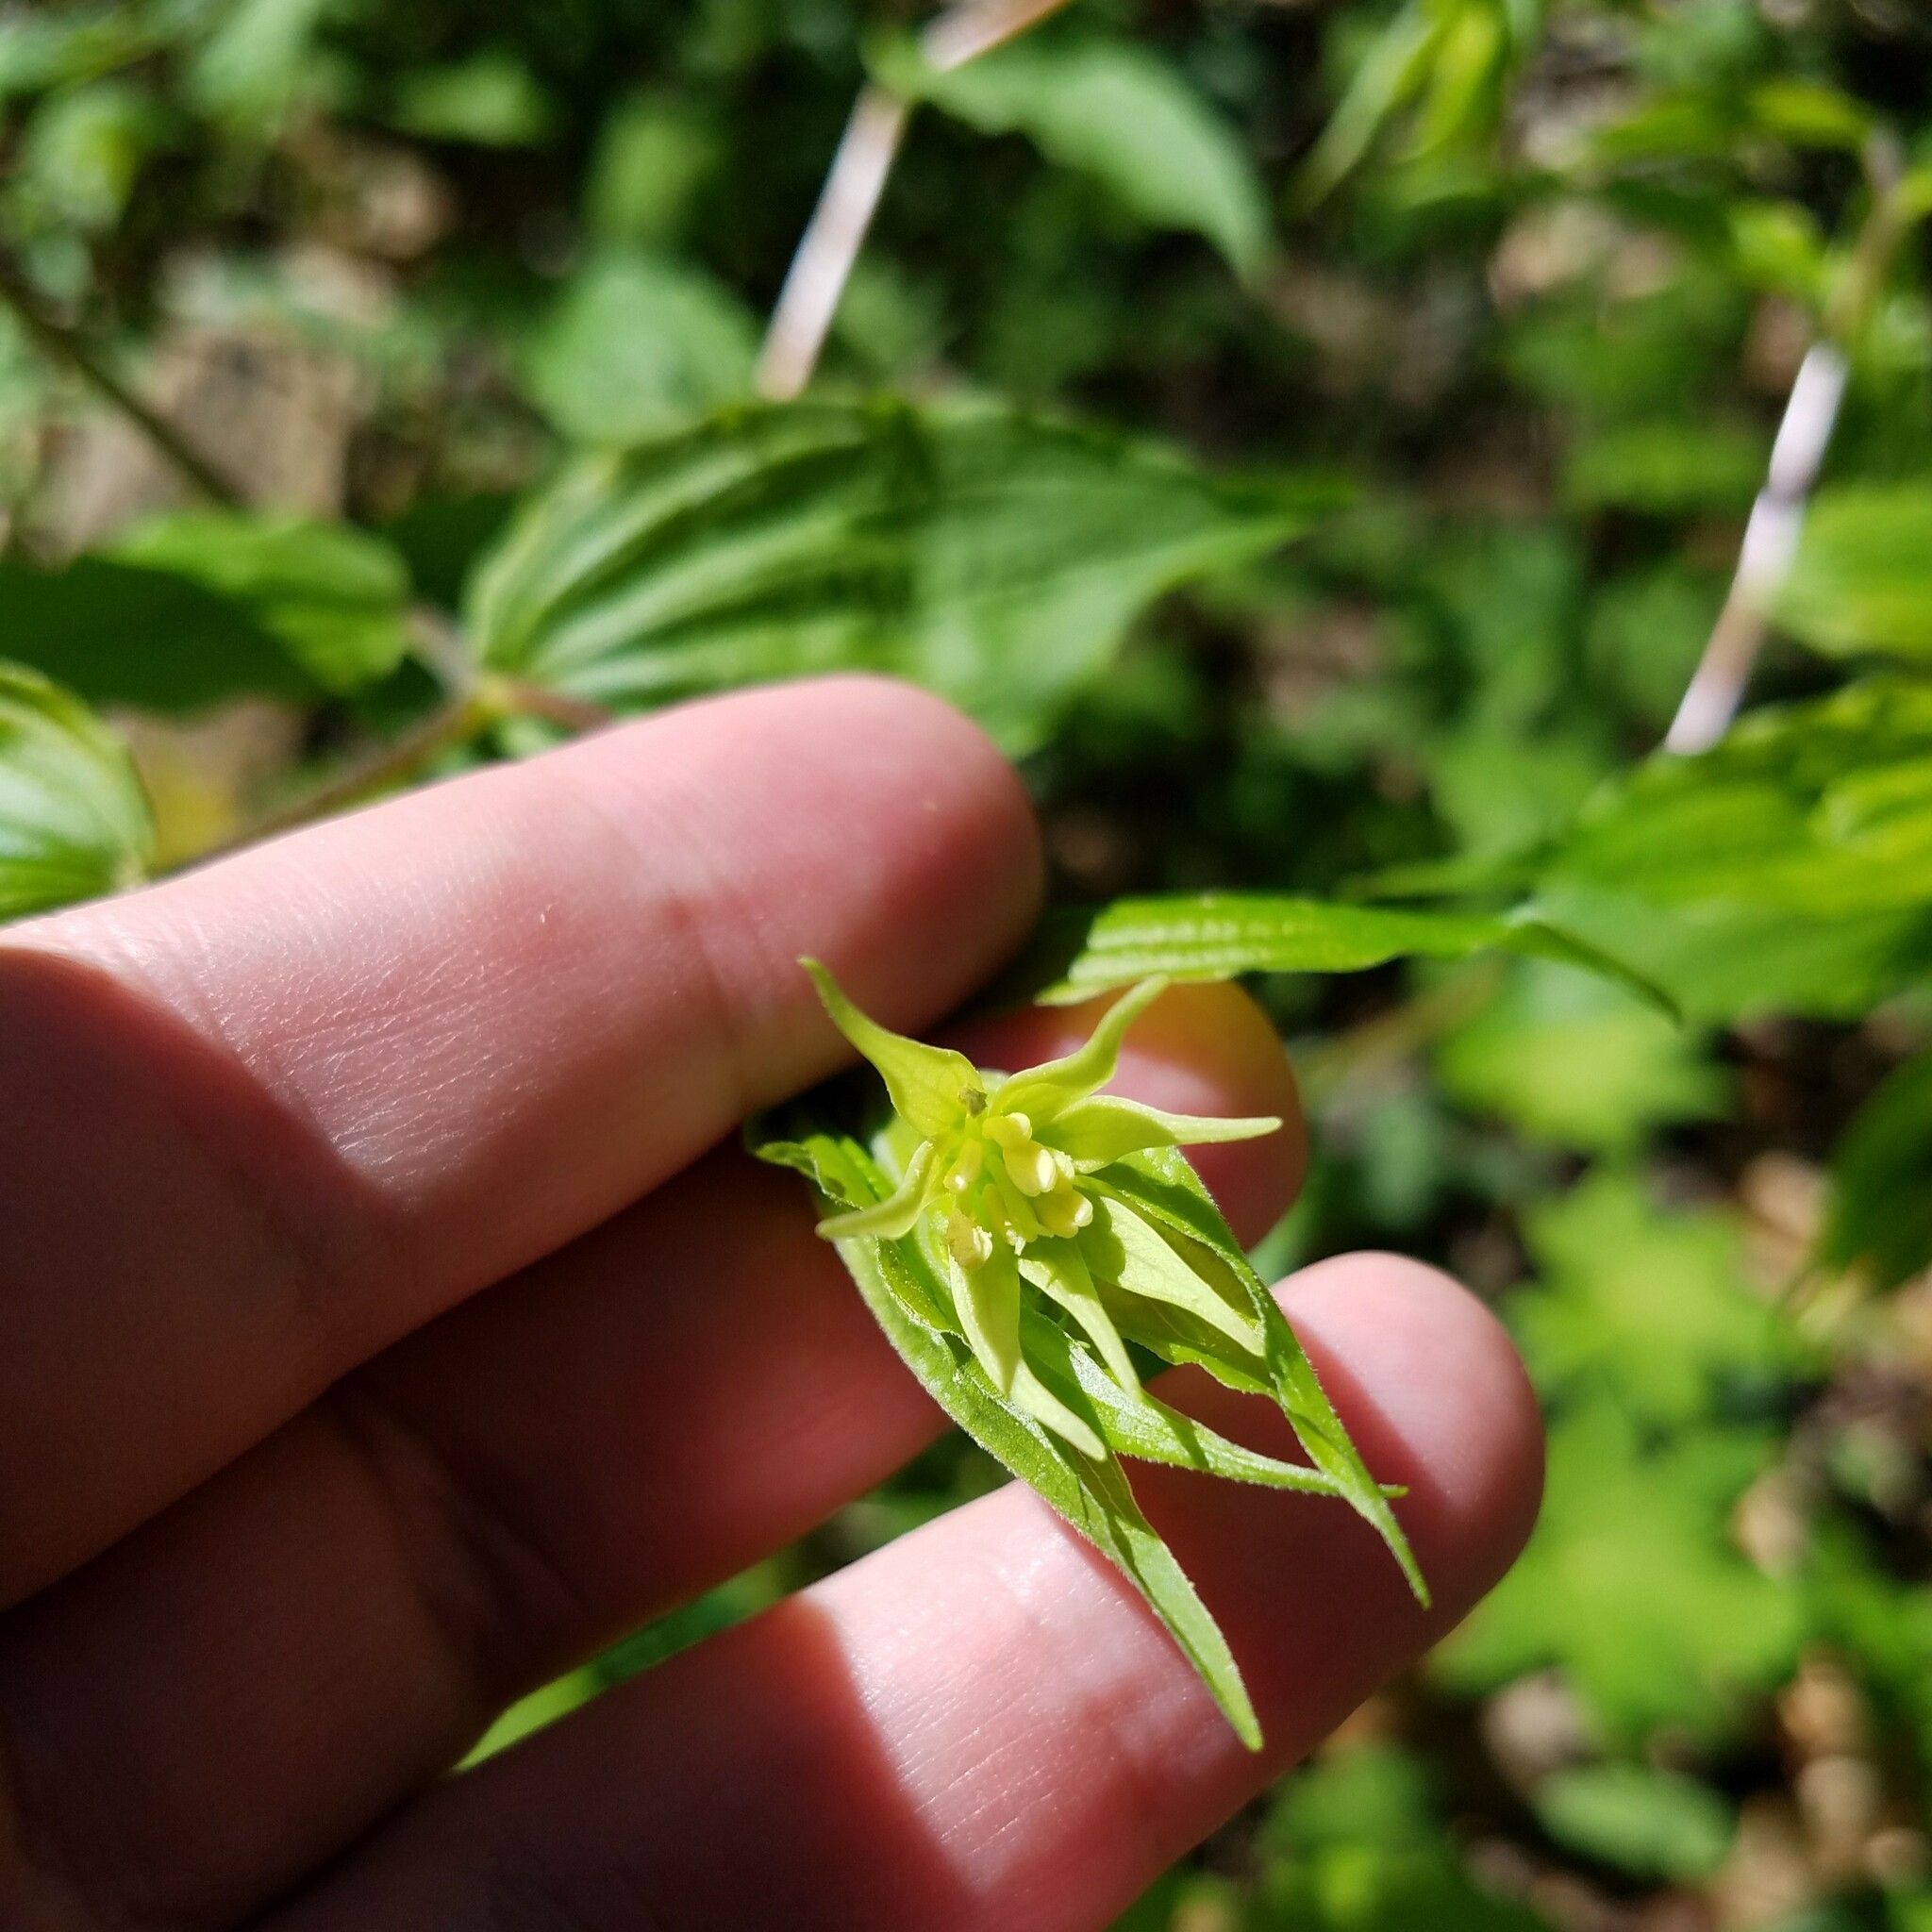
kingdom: Plantae
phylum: Tracheophyta
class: Liliopsida
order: Liliales
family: Liliaceae
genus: Prosartes
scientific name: Prosartes lanuginosa
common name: Hairy mandarin
